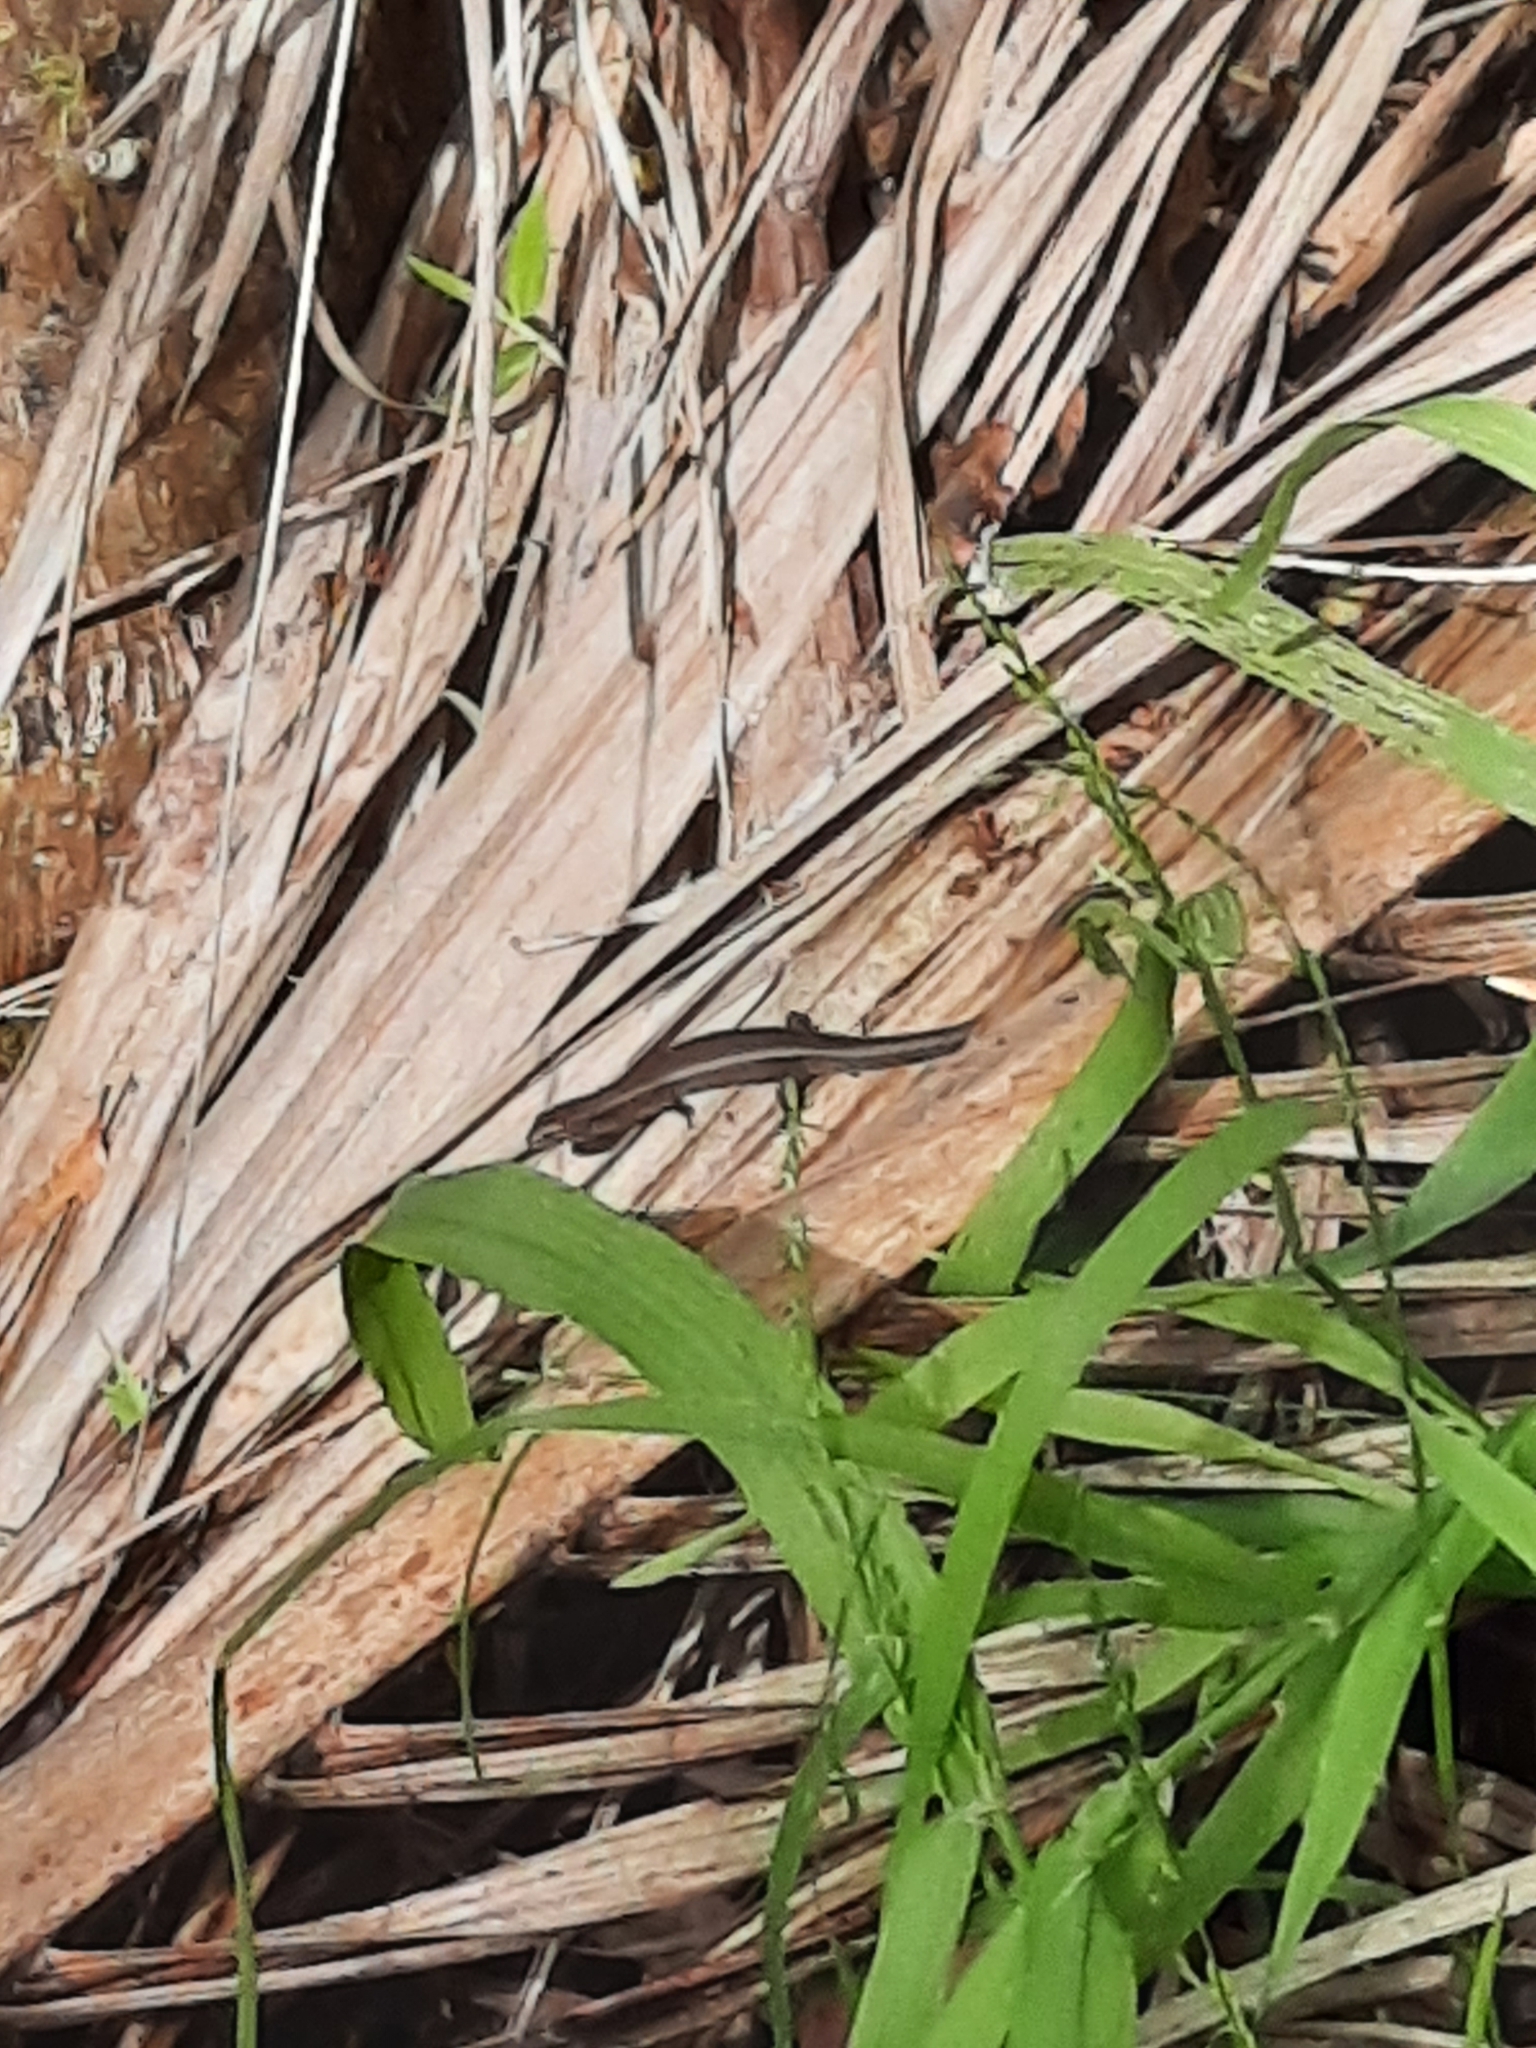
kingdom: Animalia
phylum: Chordata
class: Squamata
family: Scincidae
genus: Lampropholis
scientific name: Lampropholis delicata
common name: Plague skink
